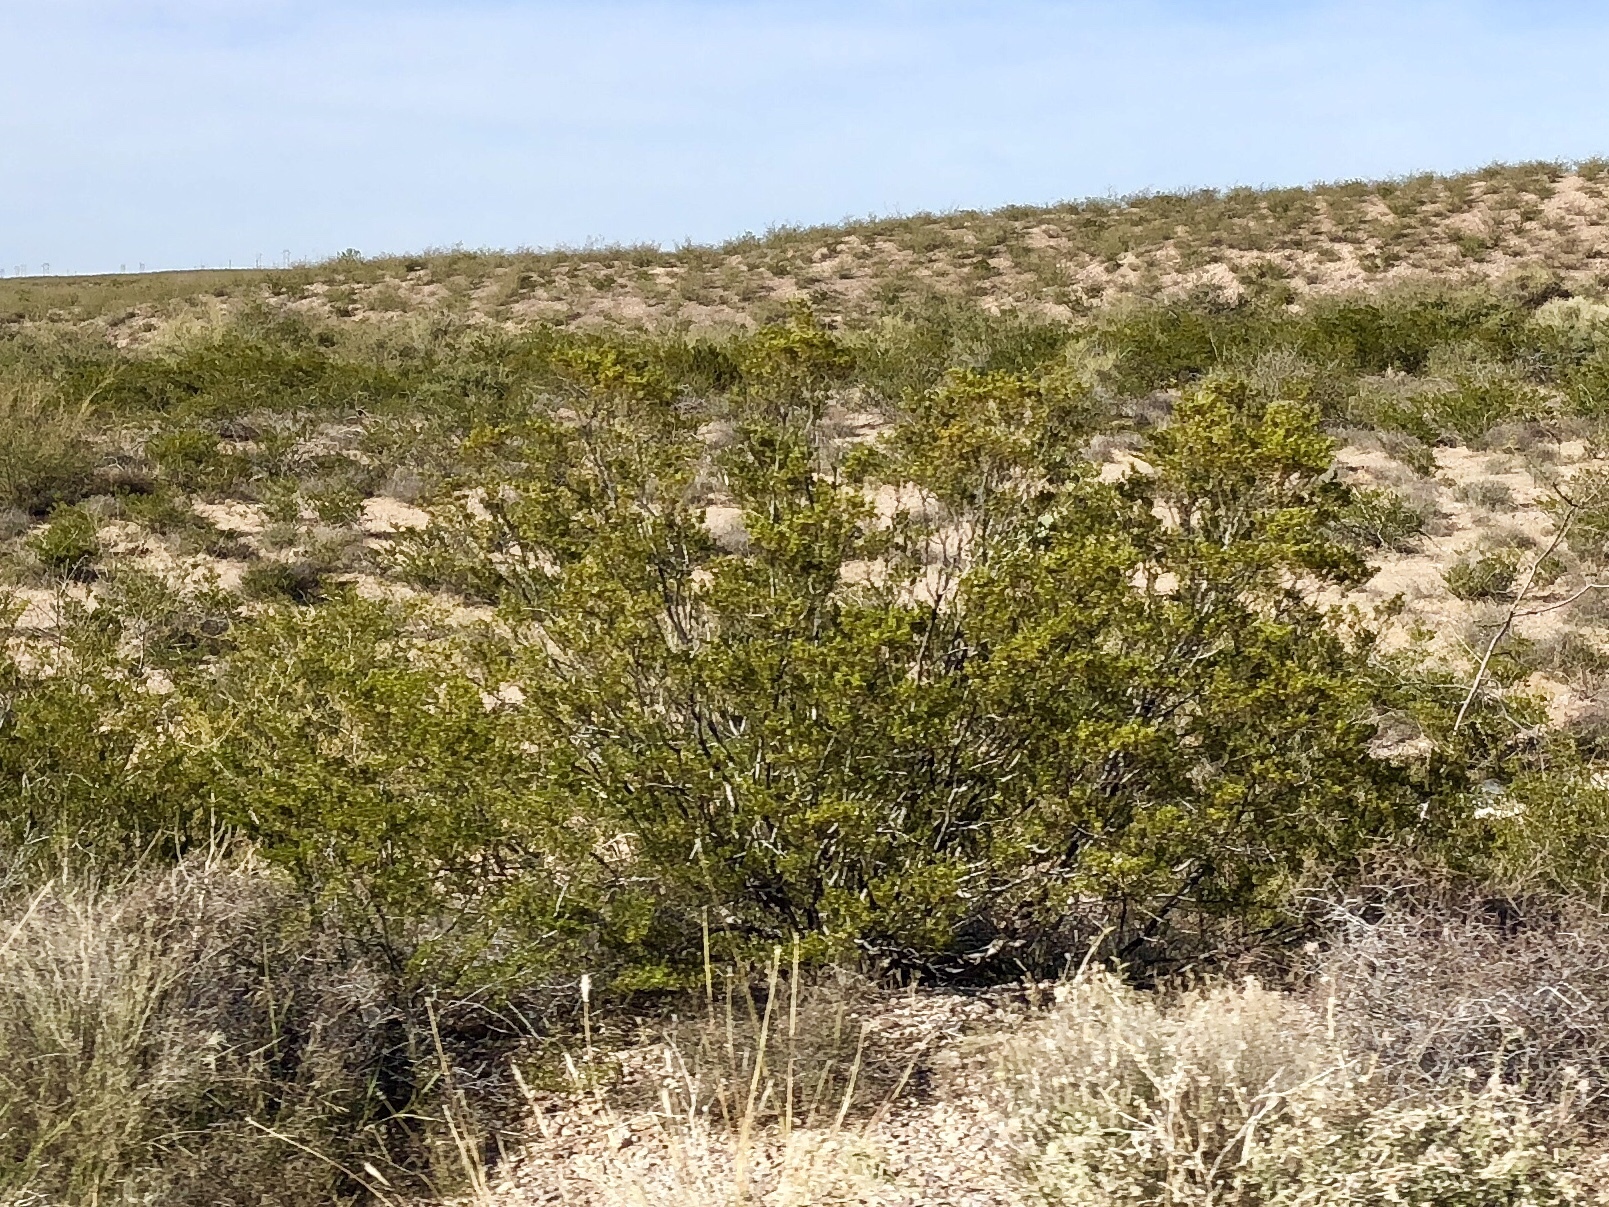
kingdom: Plantae
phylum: Tracheophyta
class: Magnoliopsida
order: Zygophyllales
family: Zygophyllaceae
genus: Larrea
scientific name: Larrea tridentata
